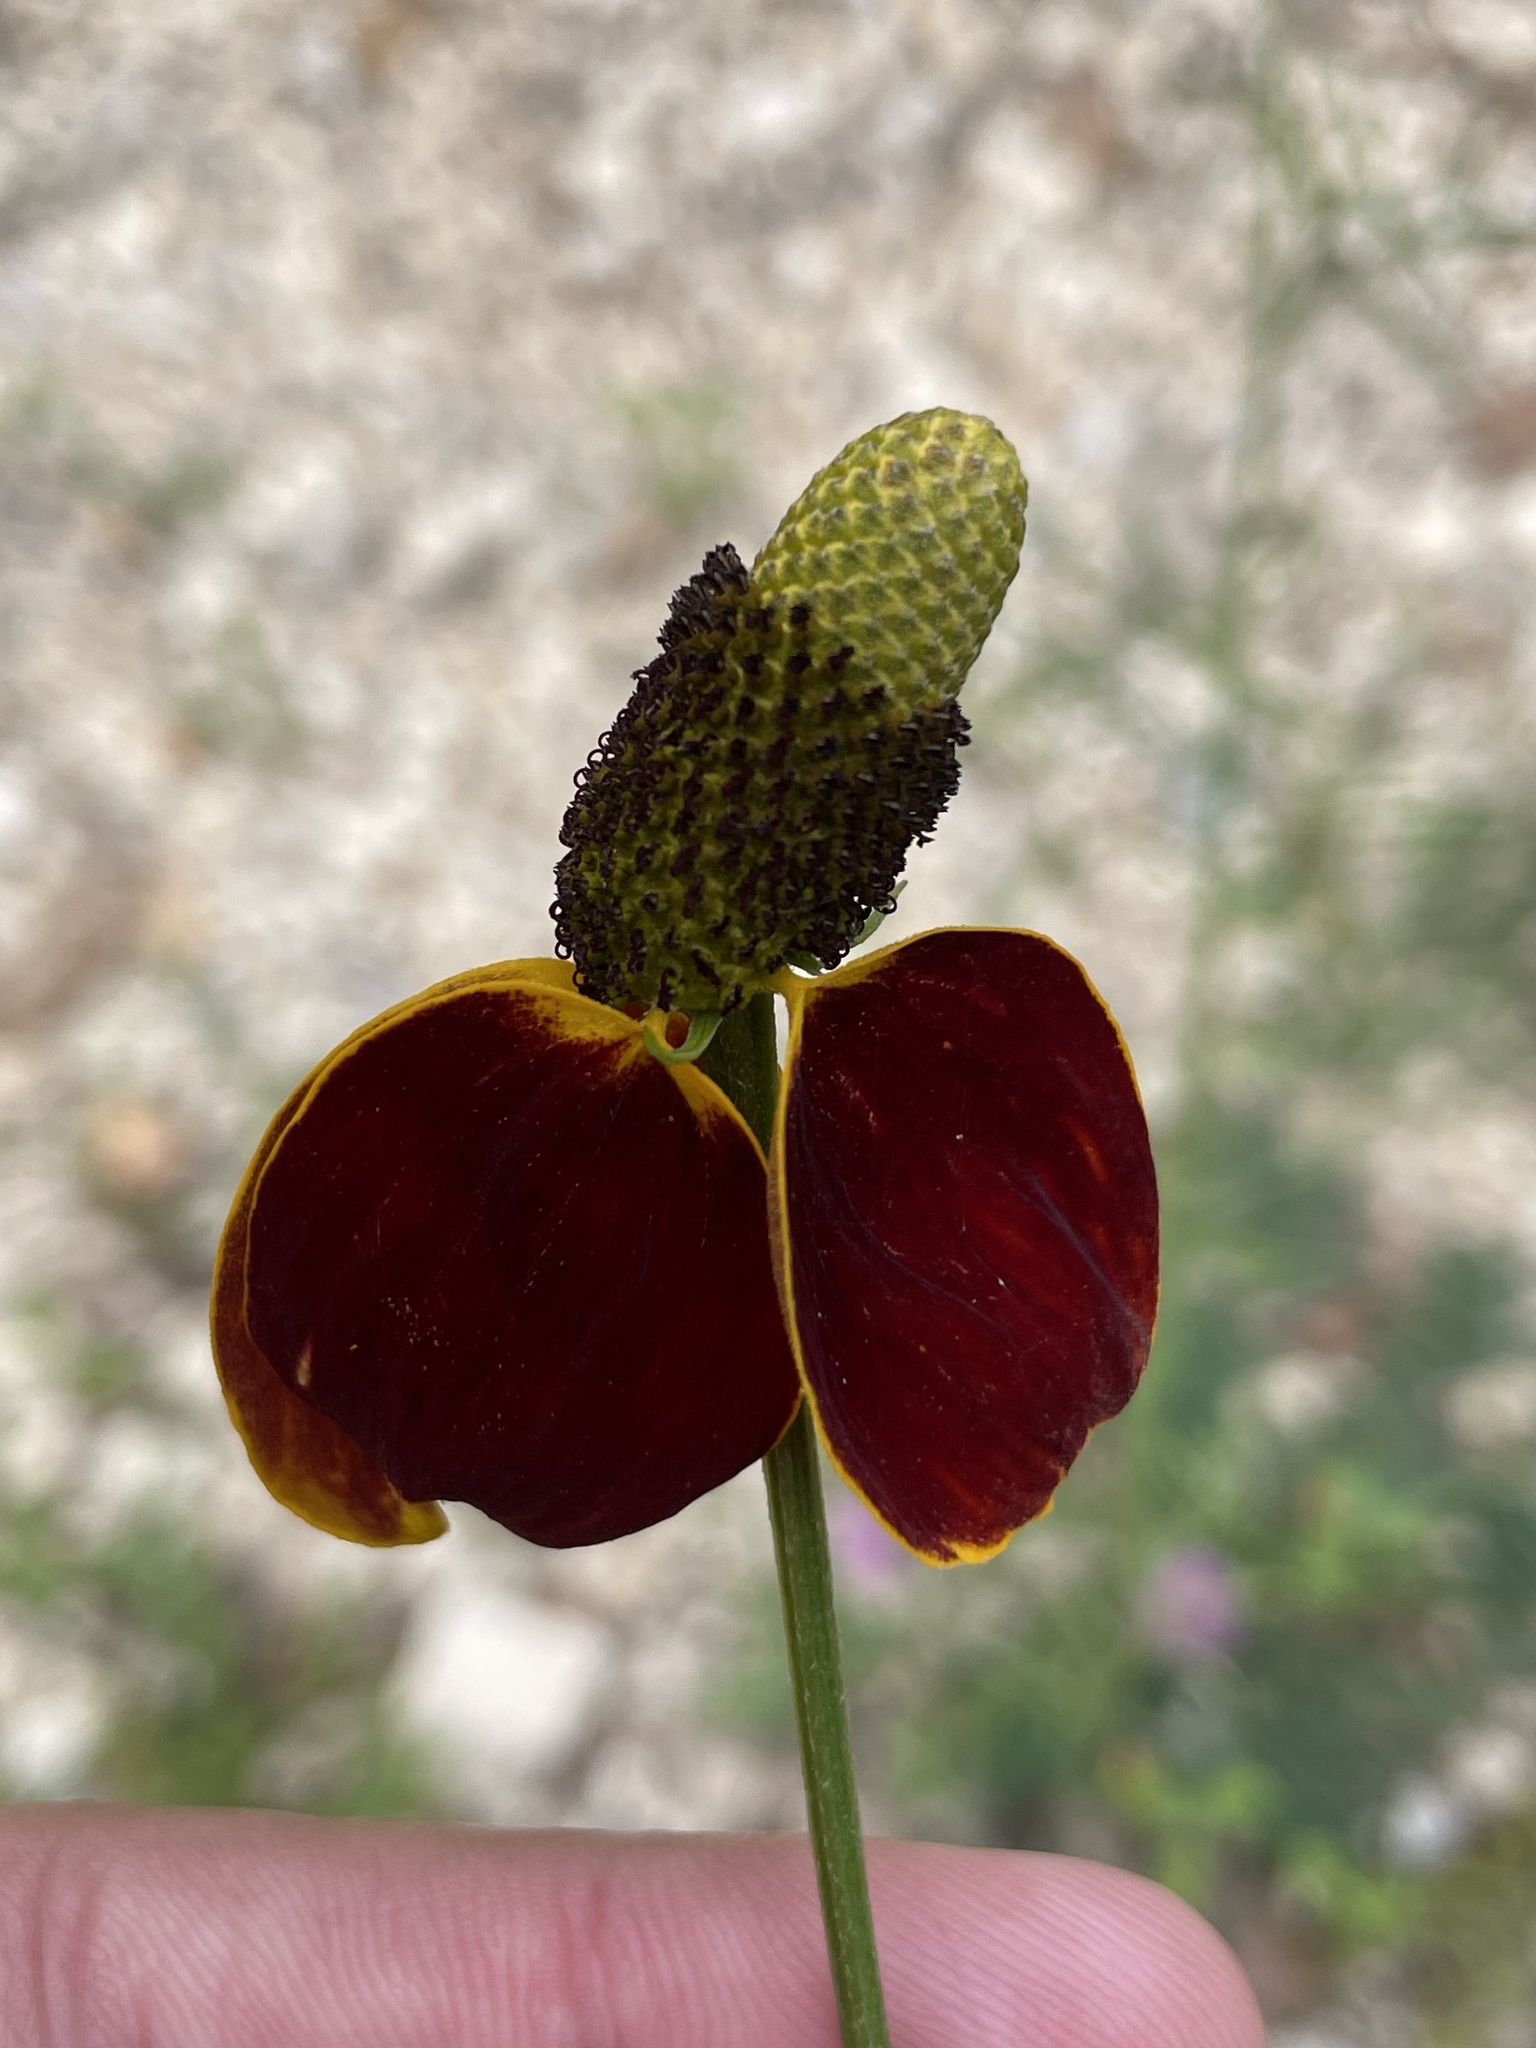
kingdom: Plantae
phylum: Tracheophyta
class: Magnoliopsida
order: Asterales
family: Asteraceae
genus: Ratibida
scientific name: Ratibida columnifera
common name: Prairie coneflower
